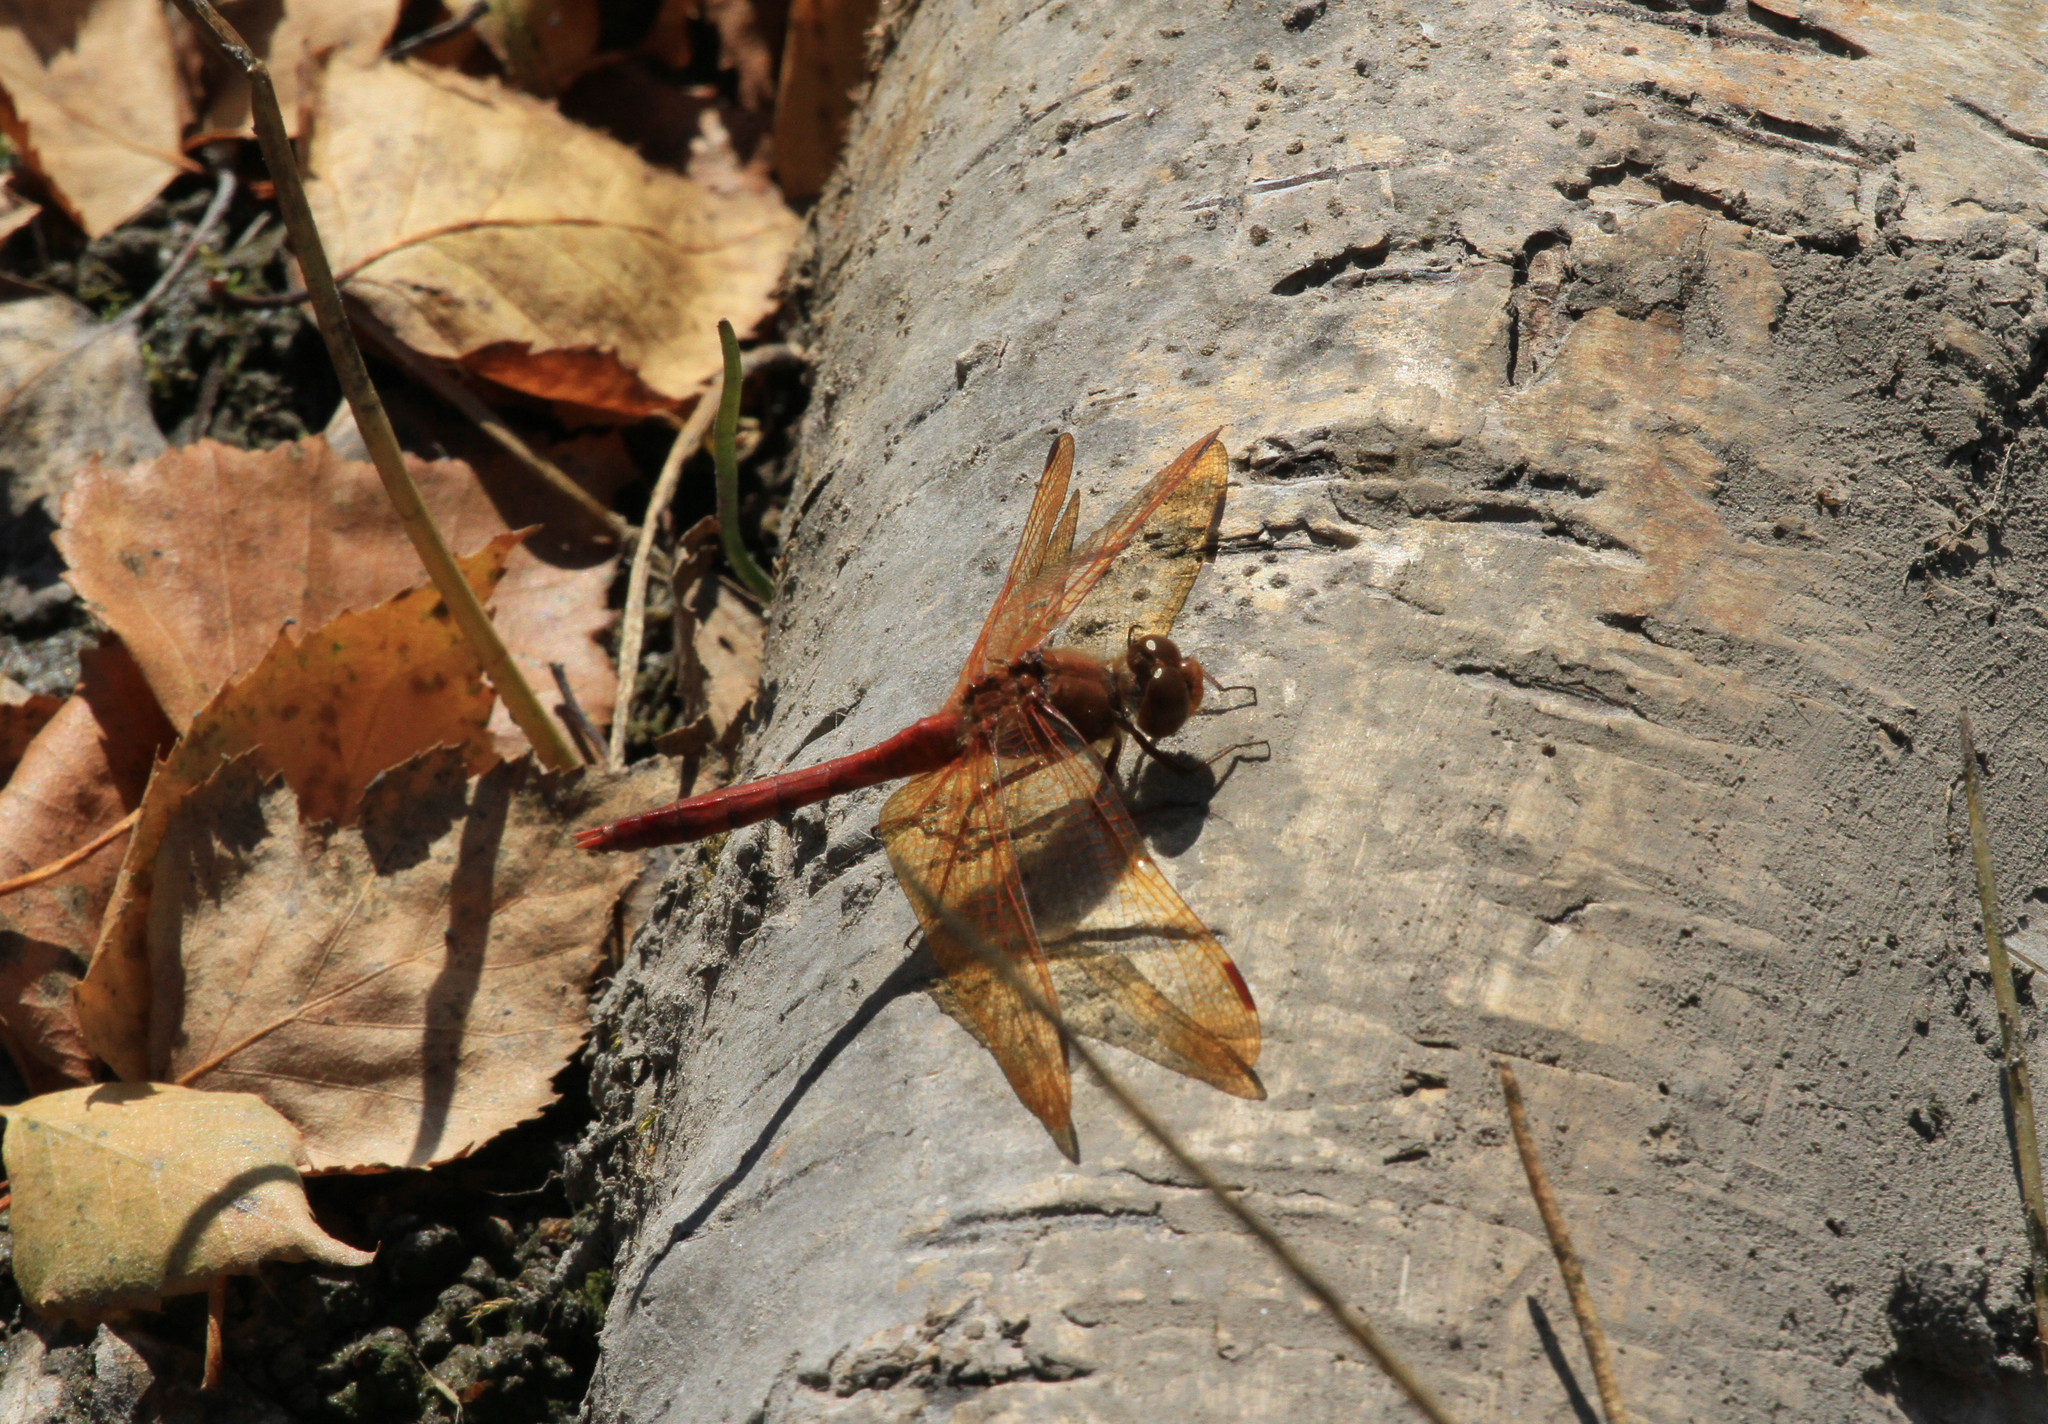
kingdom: Animalia
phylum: Arthropoda
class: Insecta
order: Odonata
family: Libellulidae
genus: Sympetrum
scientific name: Sympetrum croceolum
